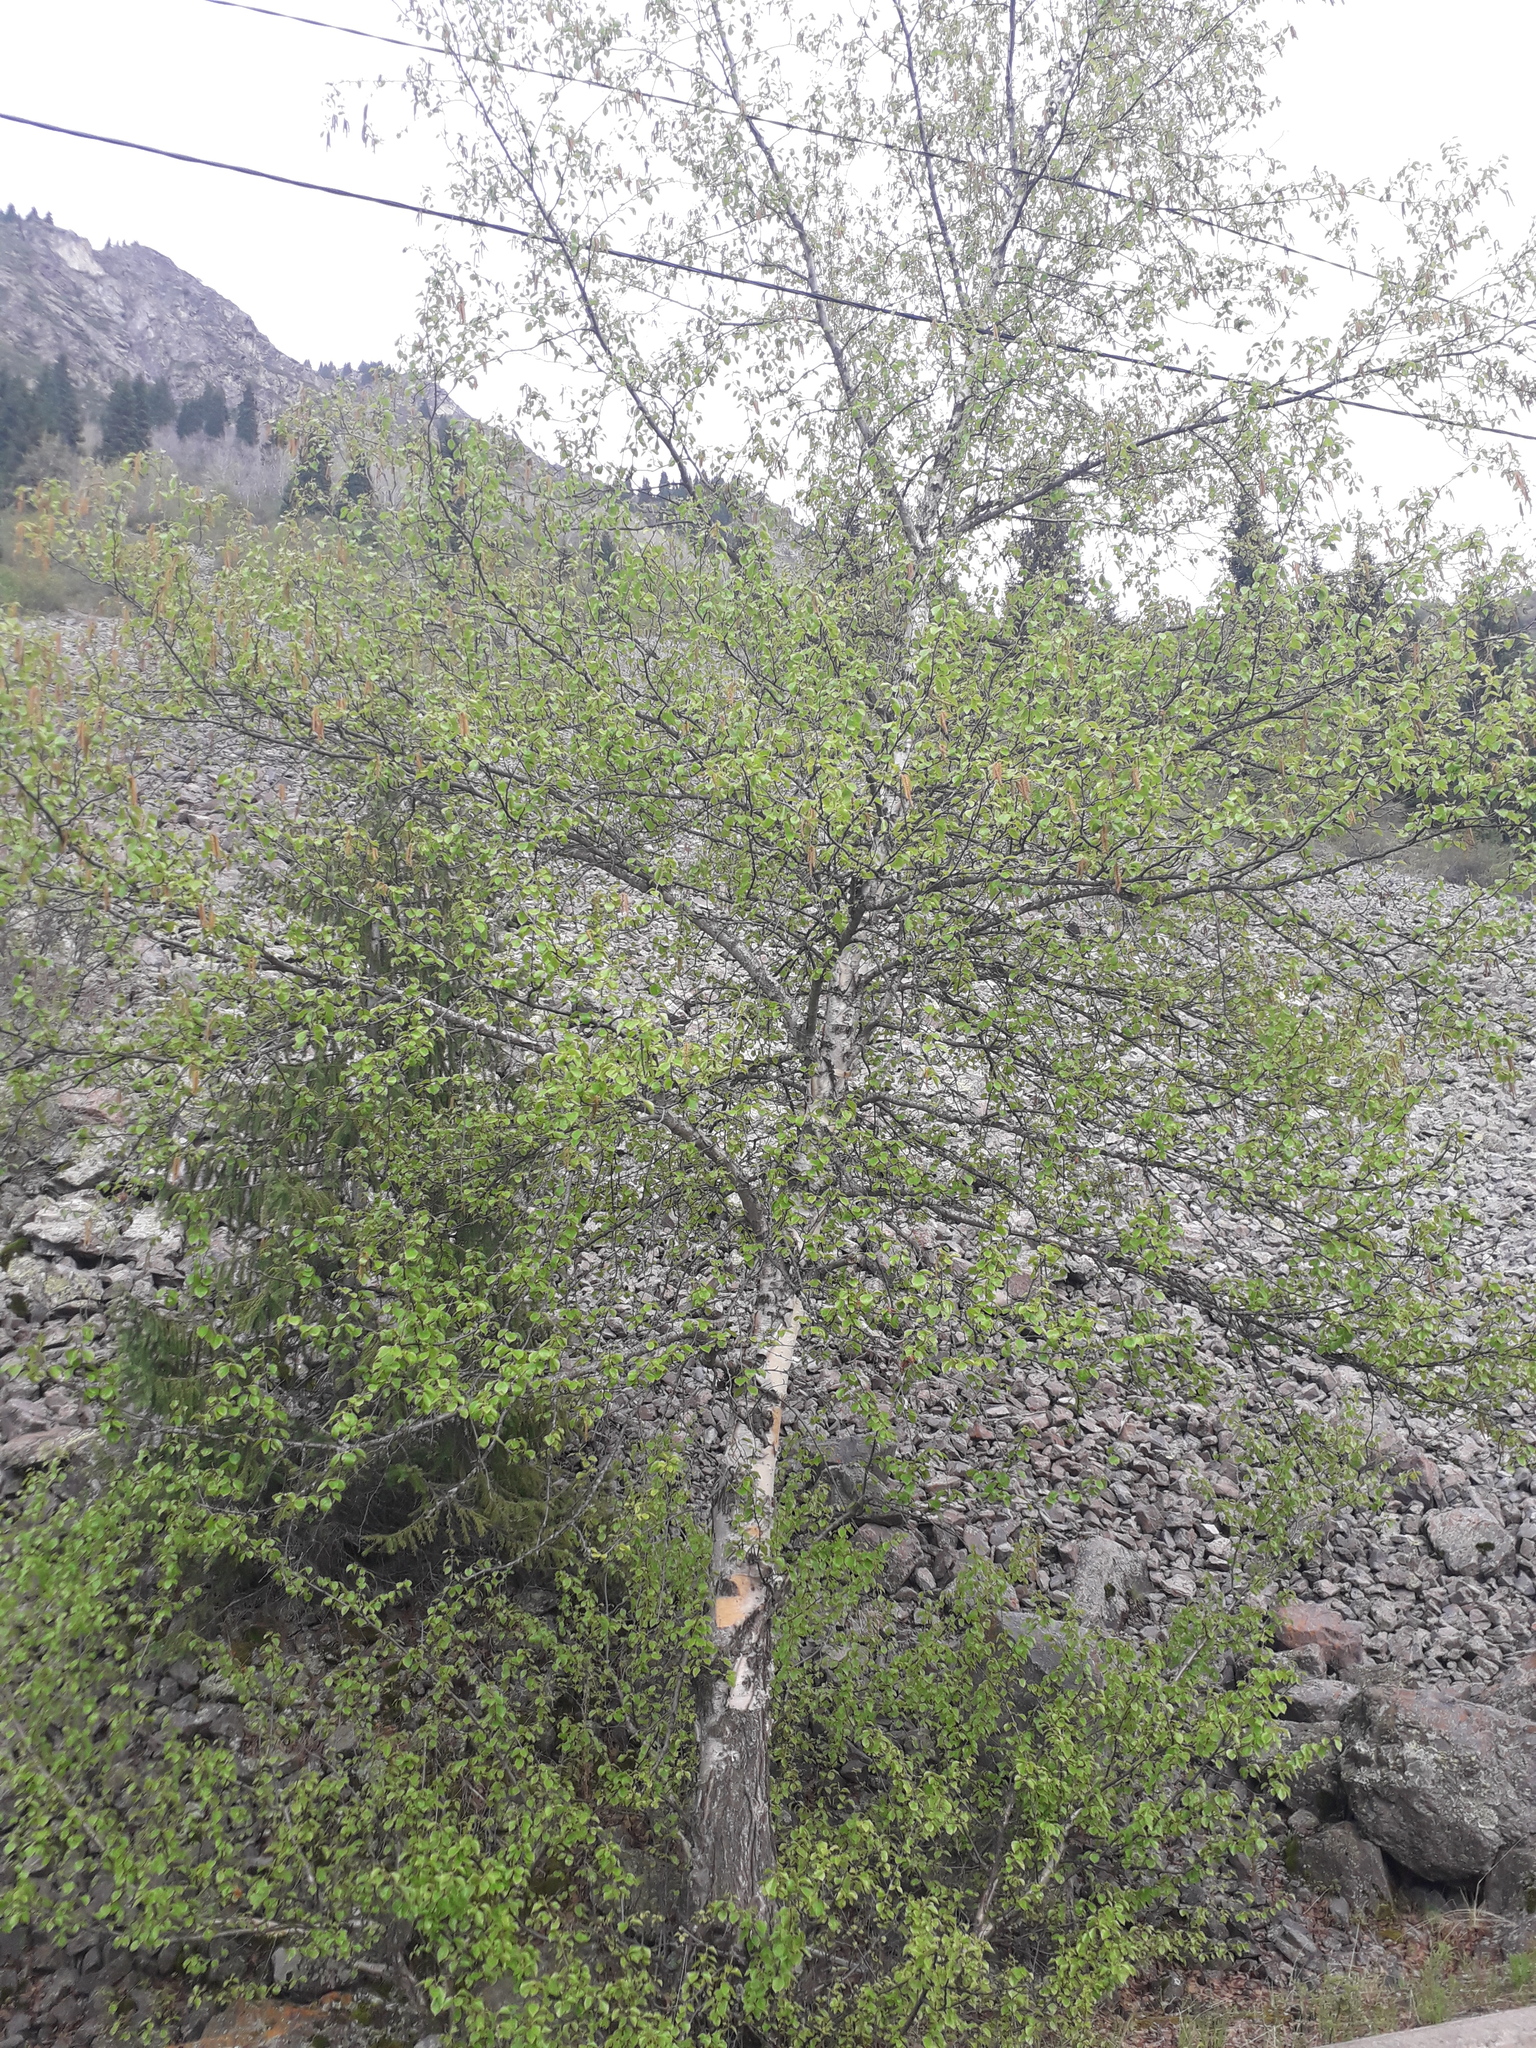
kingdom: Plantae
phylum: Tracheophyta
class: Magnoliopsida
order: Fagales
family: Betulaceae
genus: Betula
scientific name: Betula tianschanica
